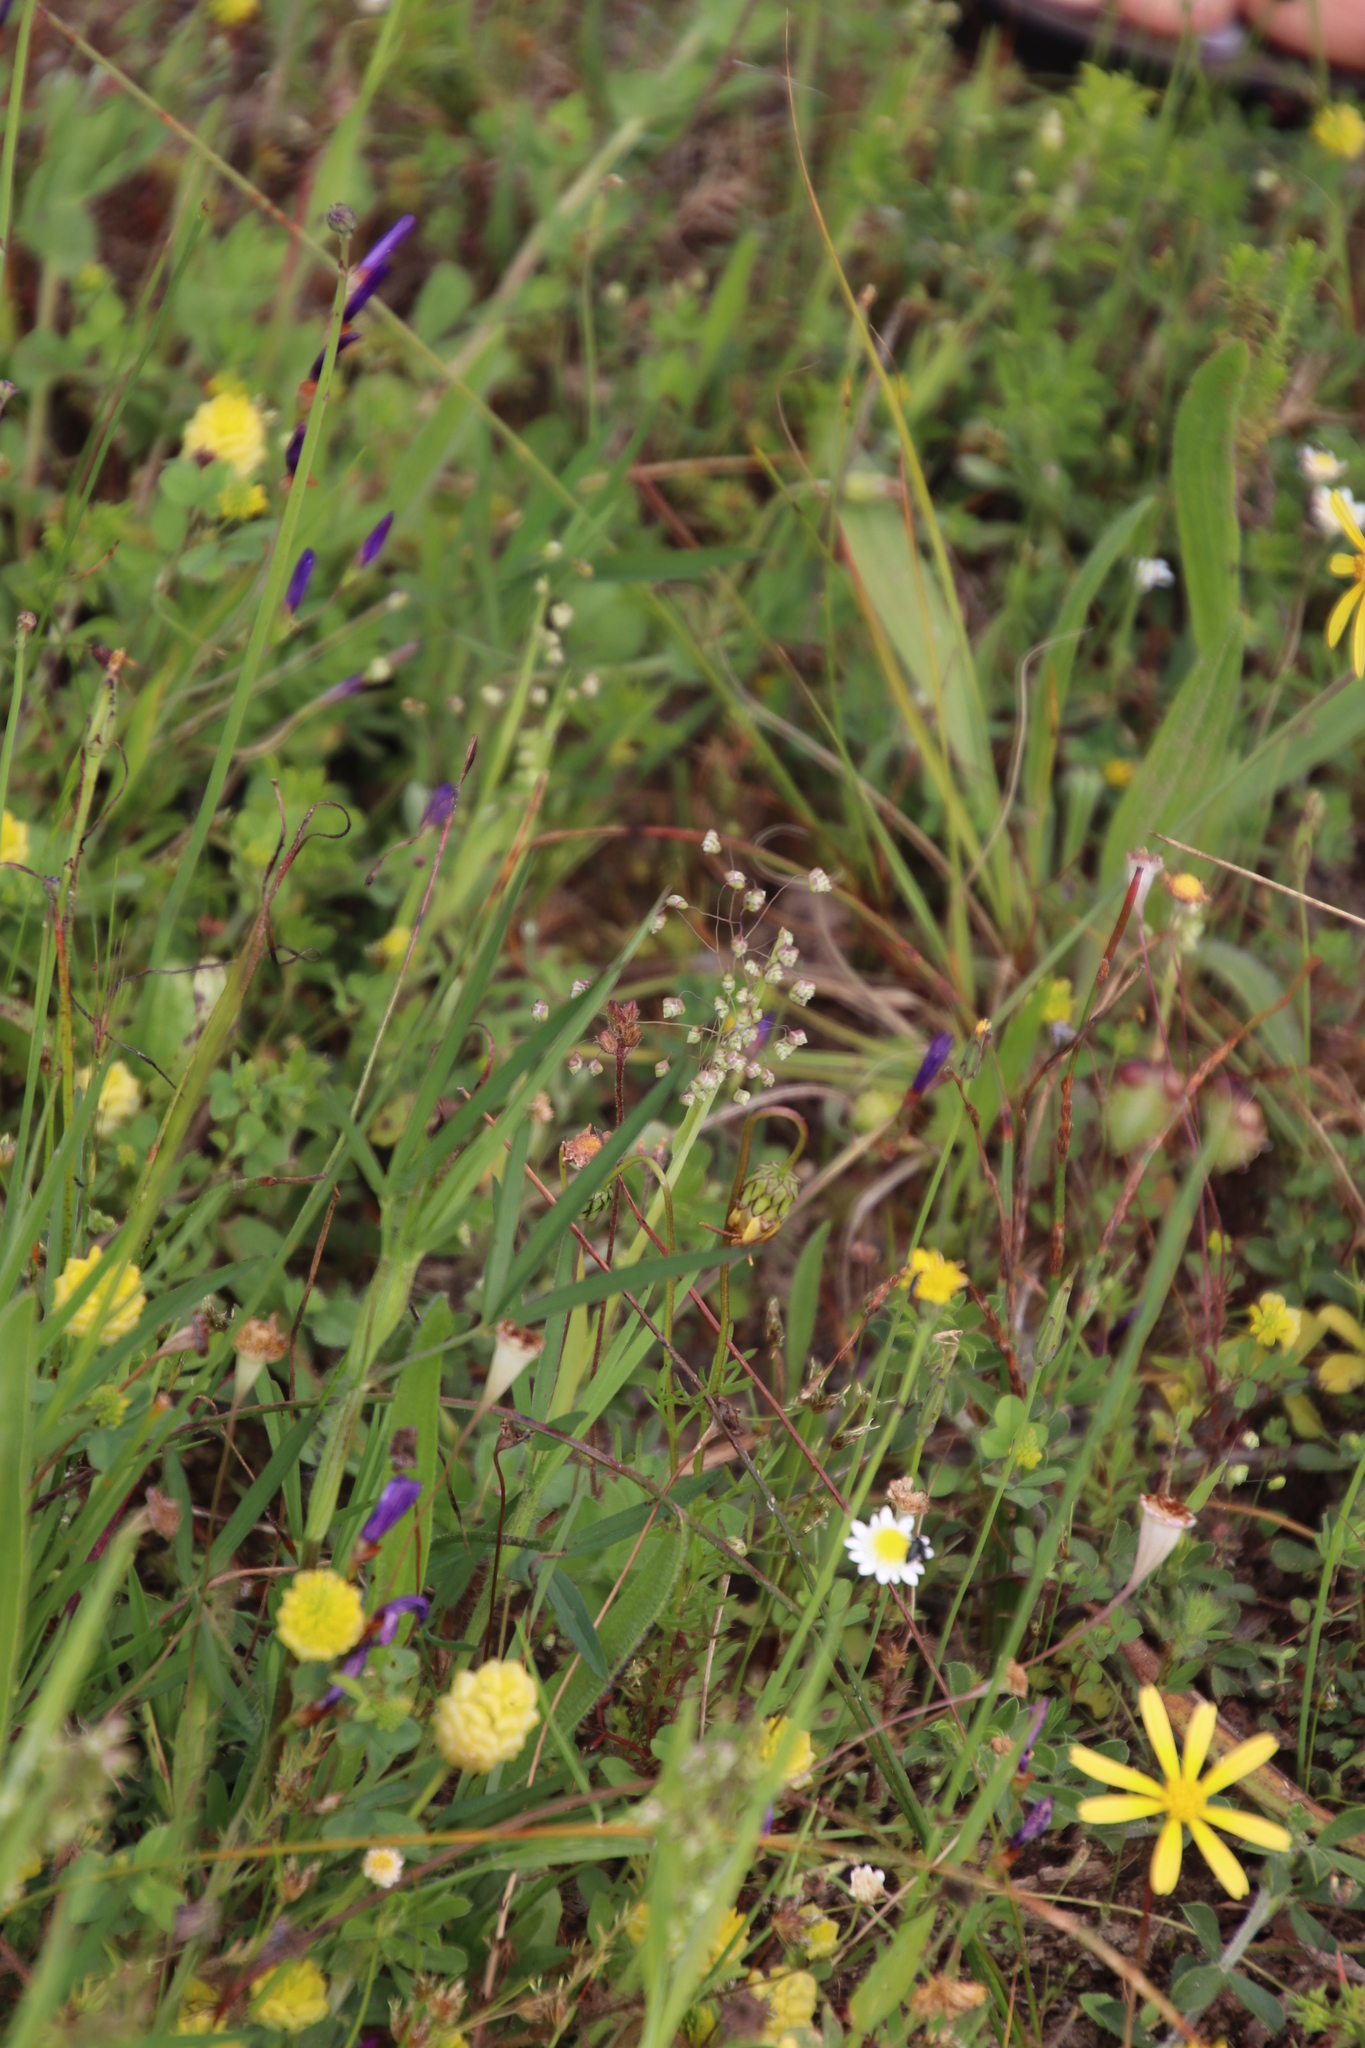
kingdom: Plantae
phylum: Tracheophyta
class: Liliopsida
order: Poales
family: Poaceae
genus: Briza
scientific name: Briza minor
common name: Lesser quaking-grass
